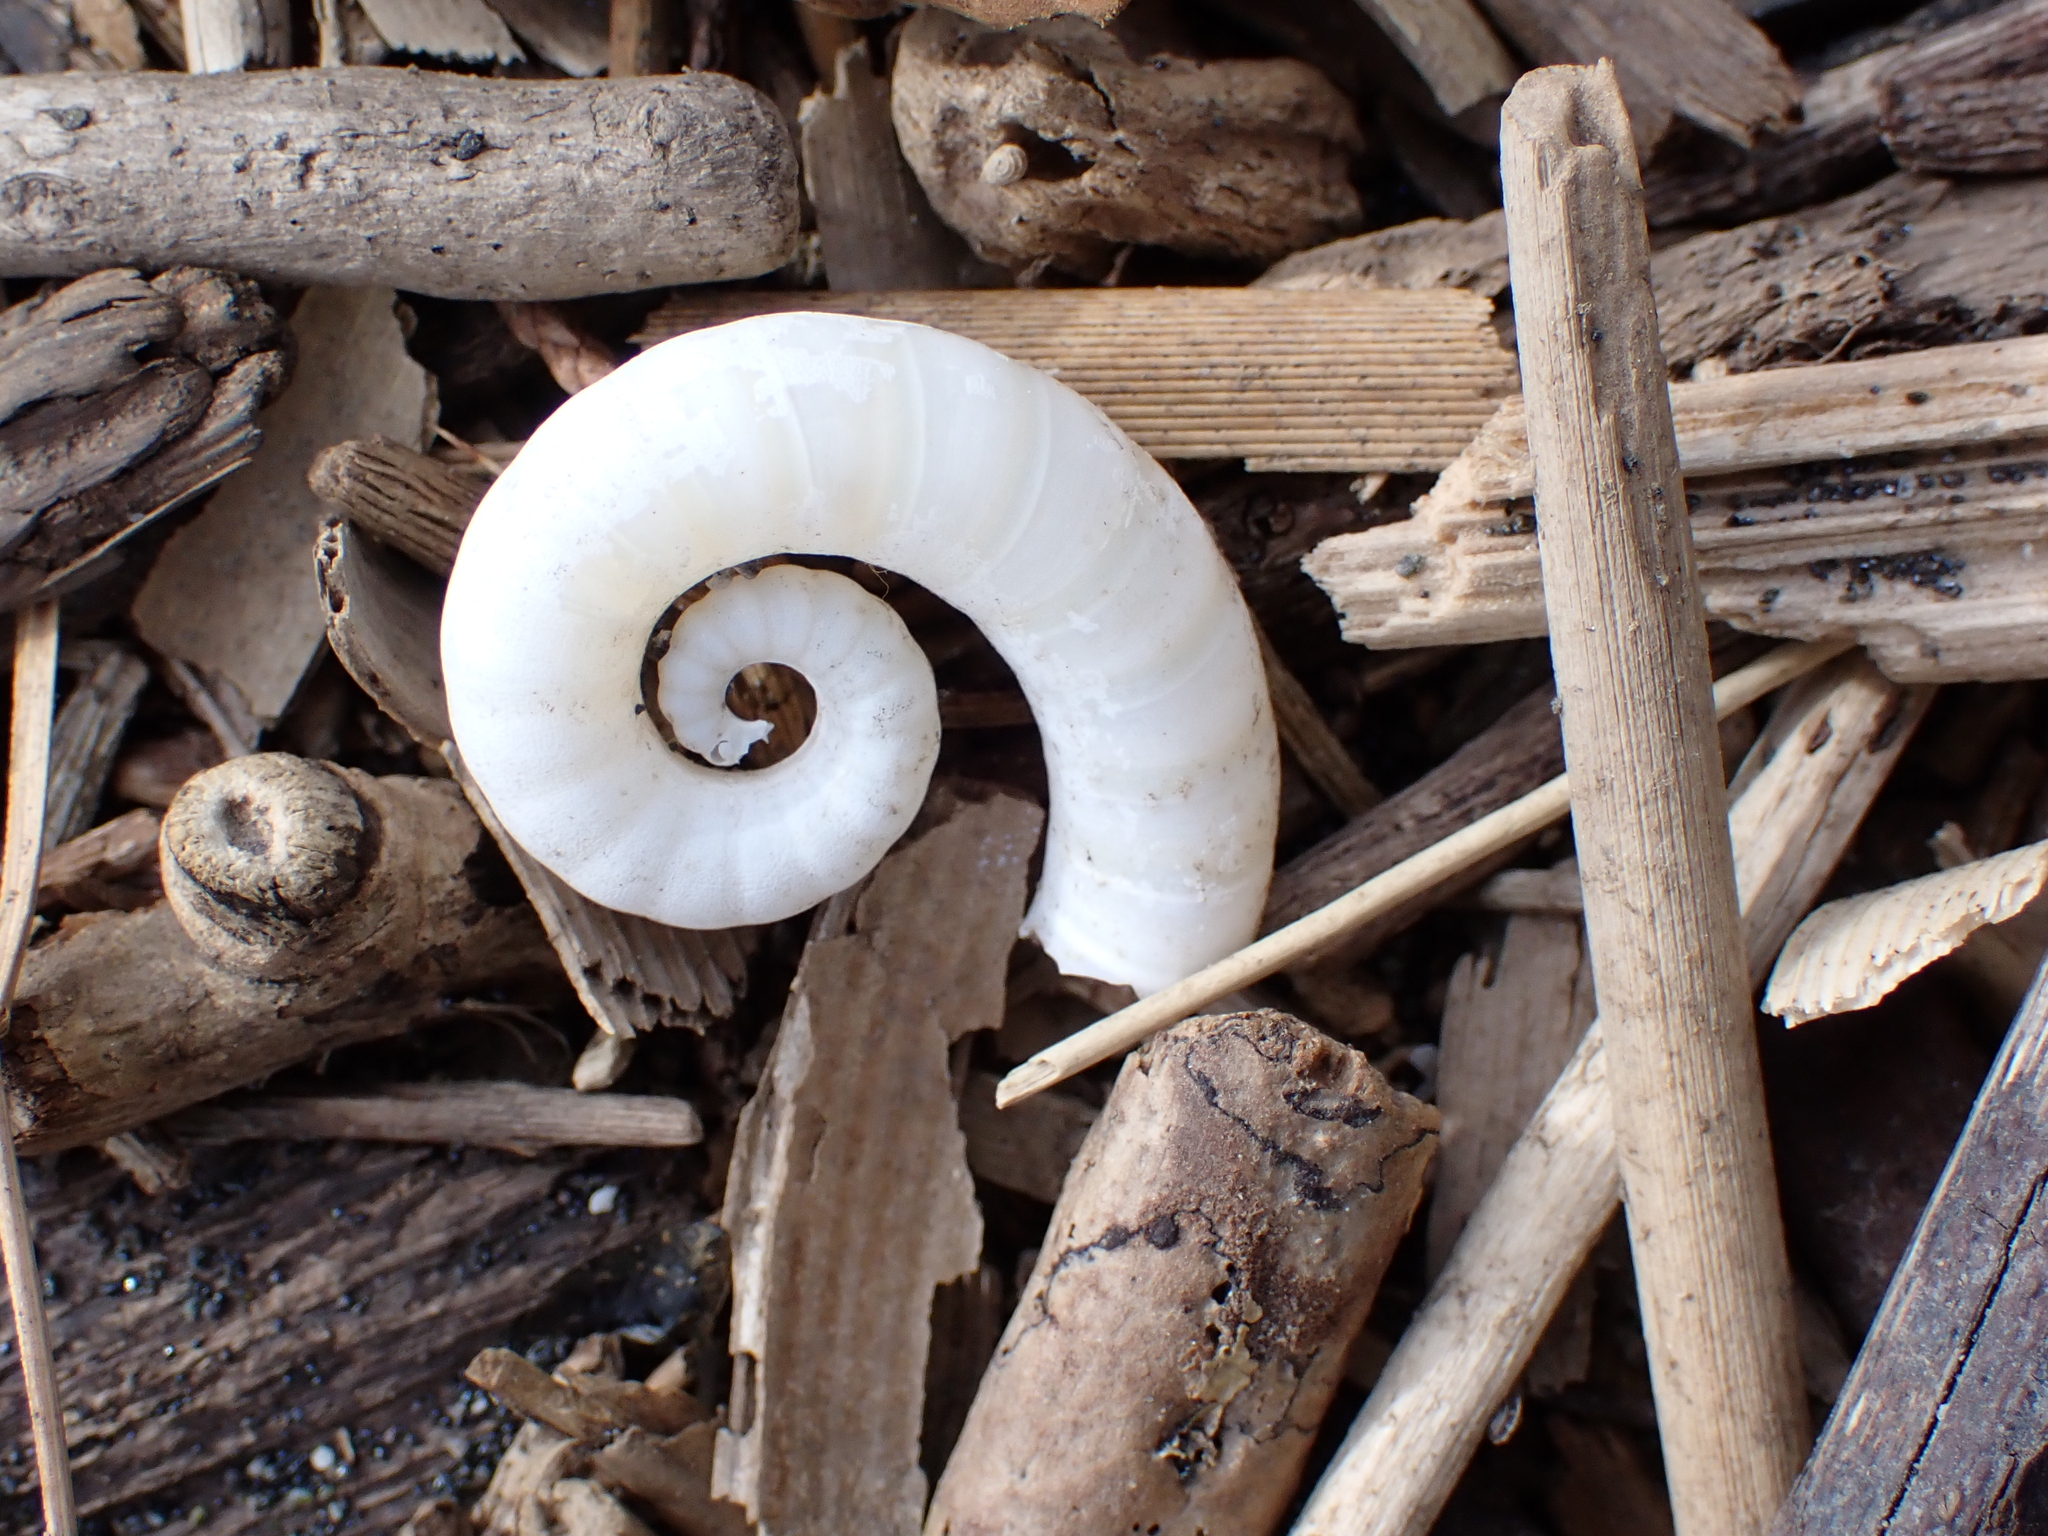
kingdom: Animalia
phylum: Mollusca
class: Cephalopoda
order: Spirulida
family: Spirulidae
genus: Spirula
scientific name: Spirula spirula
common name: Ram's horn squid
